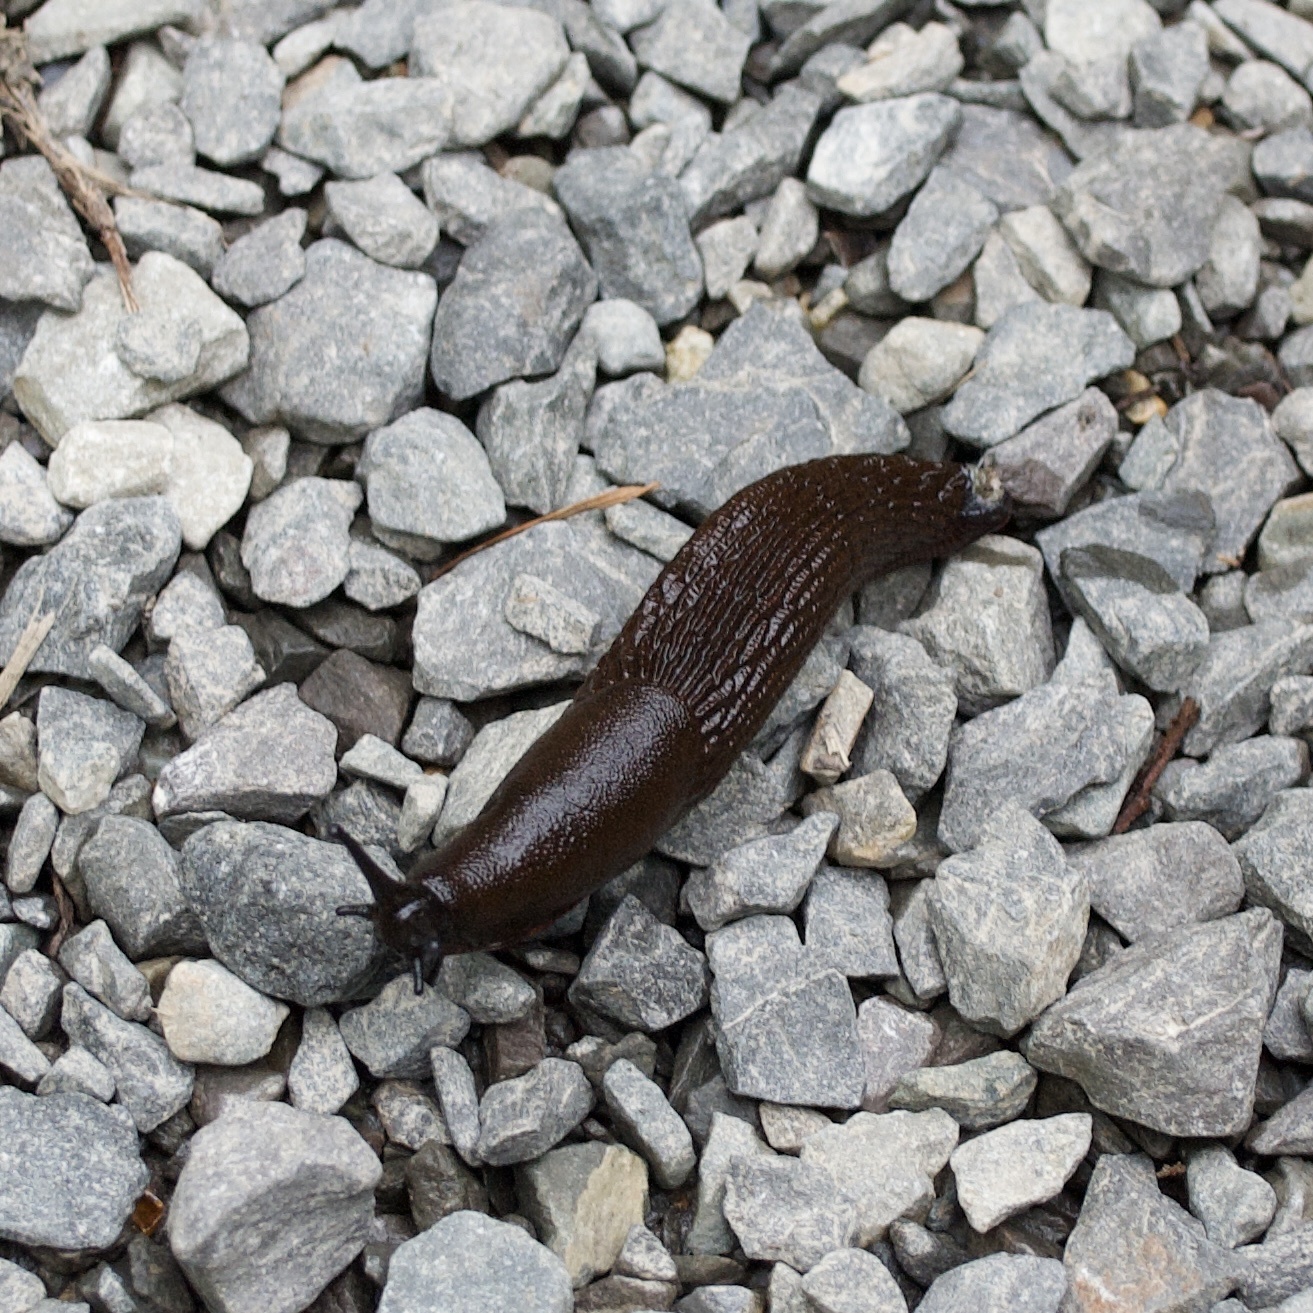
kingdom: Animalia
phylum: Mollusca
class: Gastropoda
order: Stylommatophora
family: Arionidae
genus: Arion
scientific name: Arion rufus
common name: Chocolate arion
